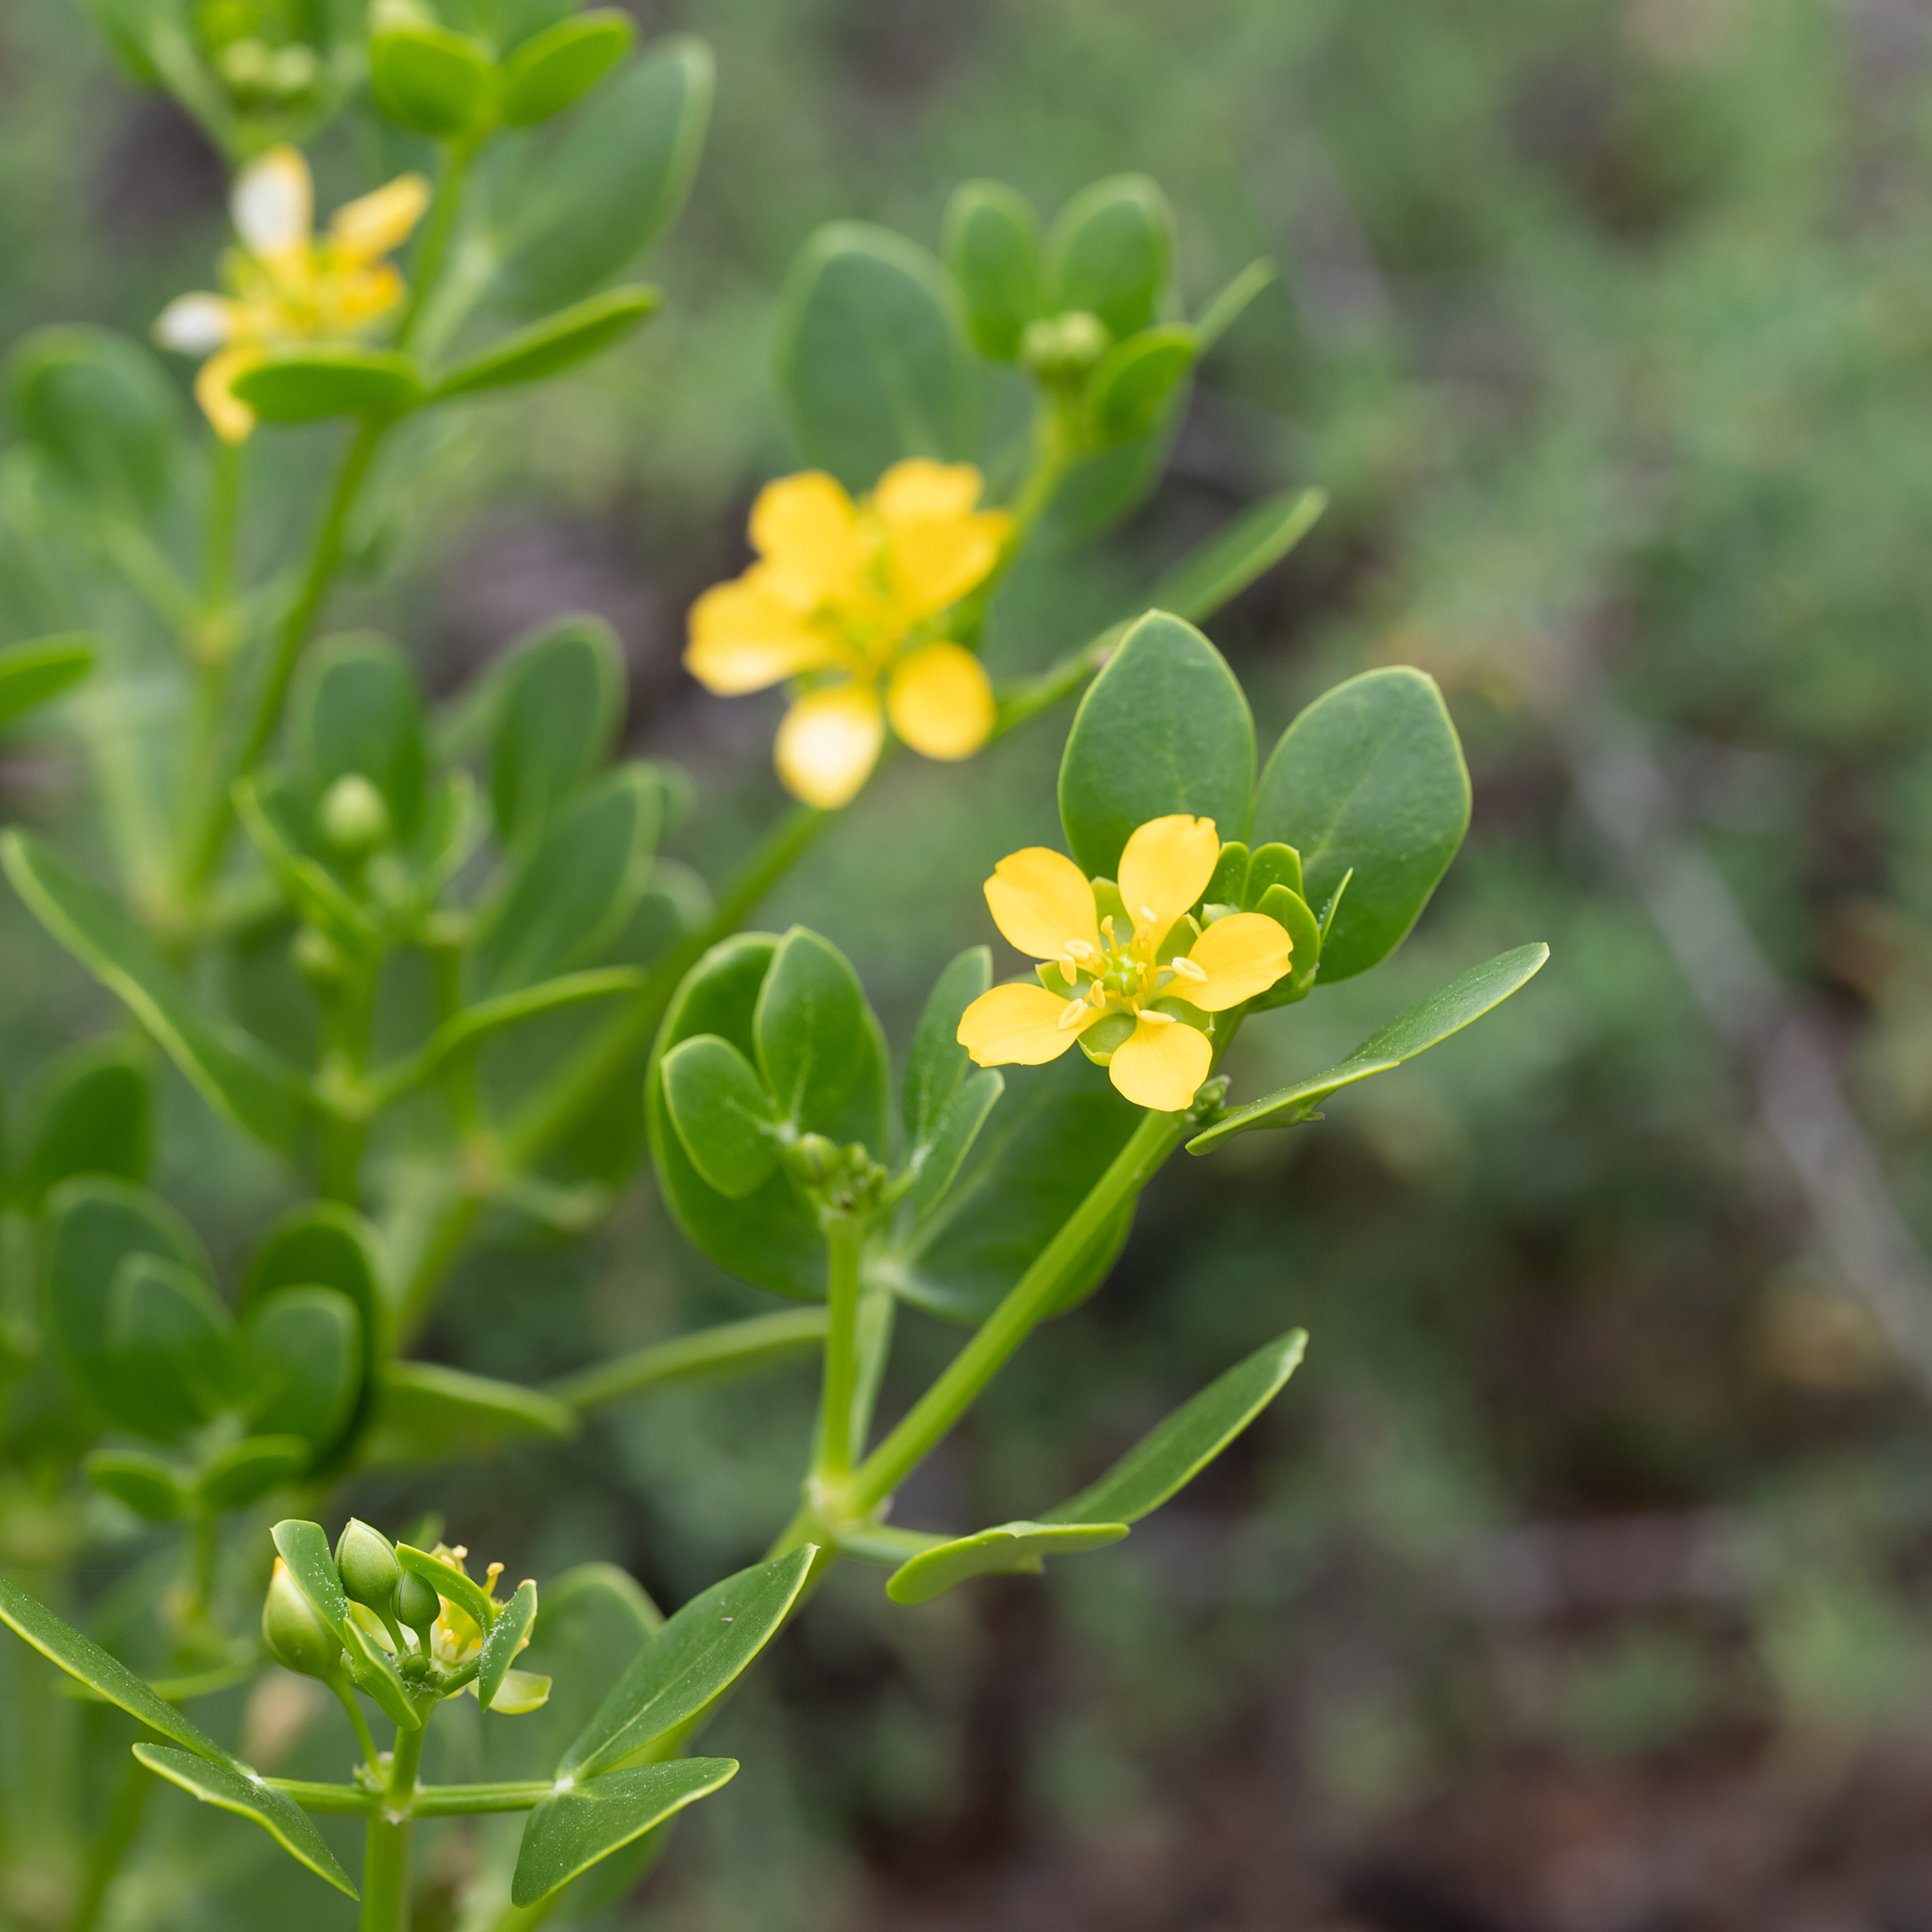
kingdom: Plantae
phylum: Tracheophyta
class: Magnoliopsida
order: Zygophyllales
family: Zygophyllaceae
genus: Roepera
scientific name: Roepera apiculata
